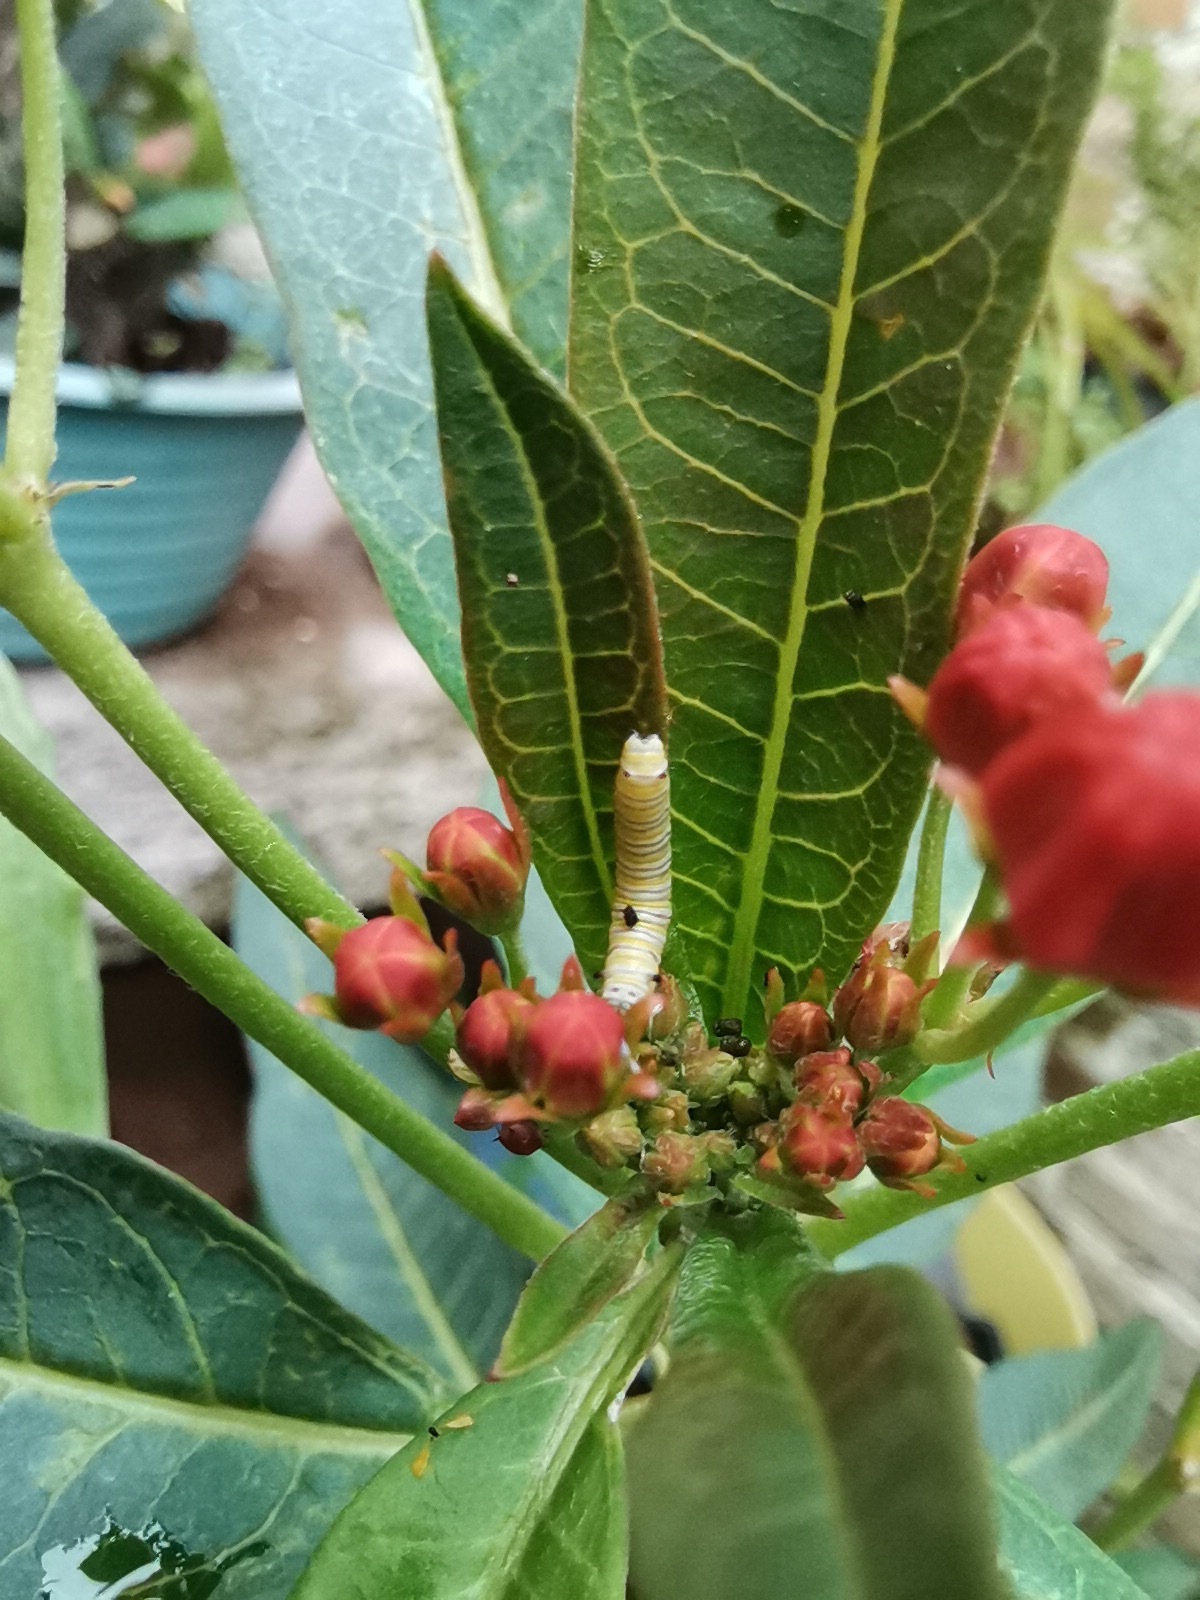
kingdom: Animalia
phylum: Arthropoda
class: Insecta
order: Lepidoptera
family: Nymphalidae
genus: Danaus
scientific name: Danaus plexippus
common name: Monarch
